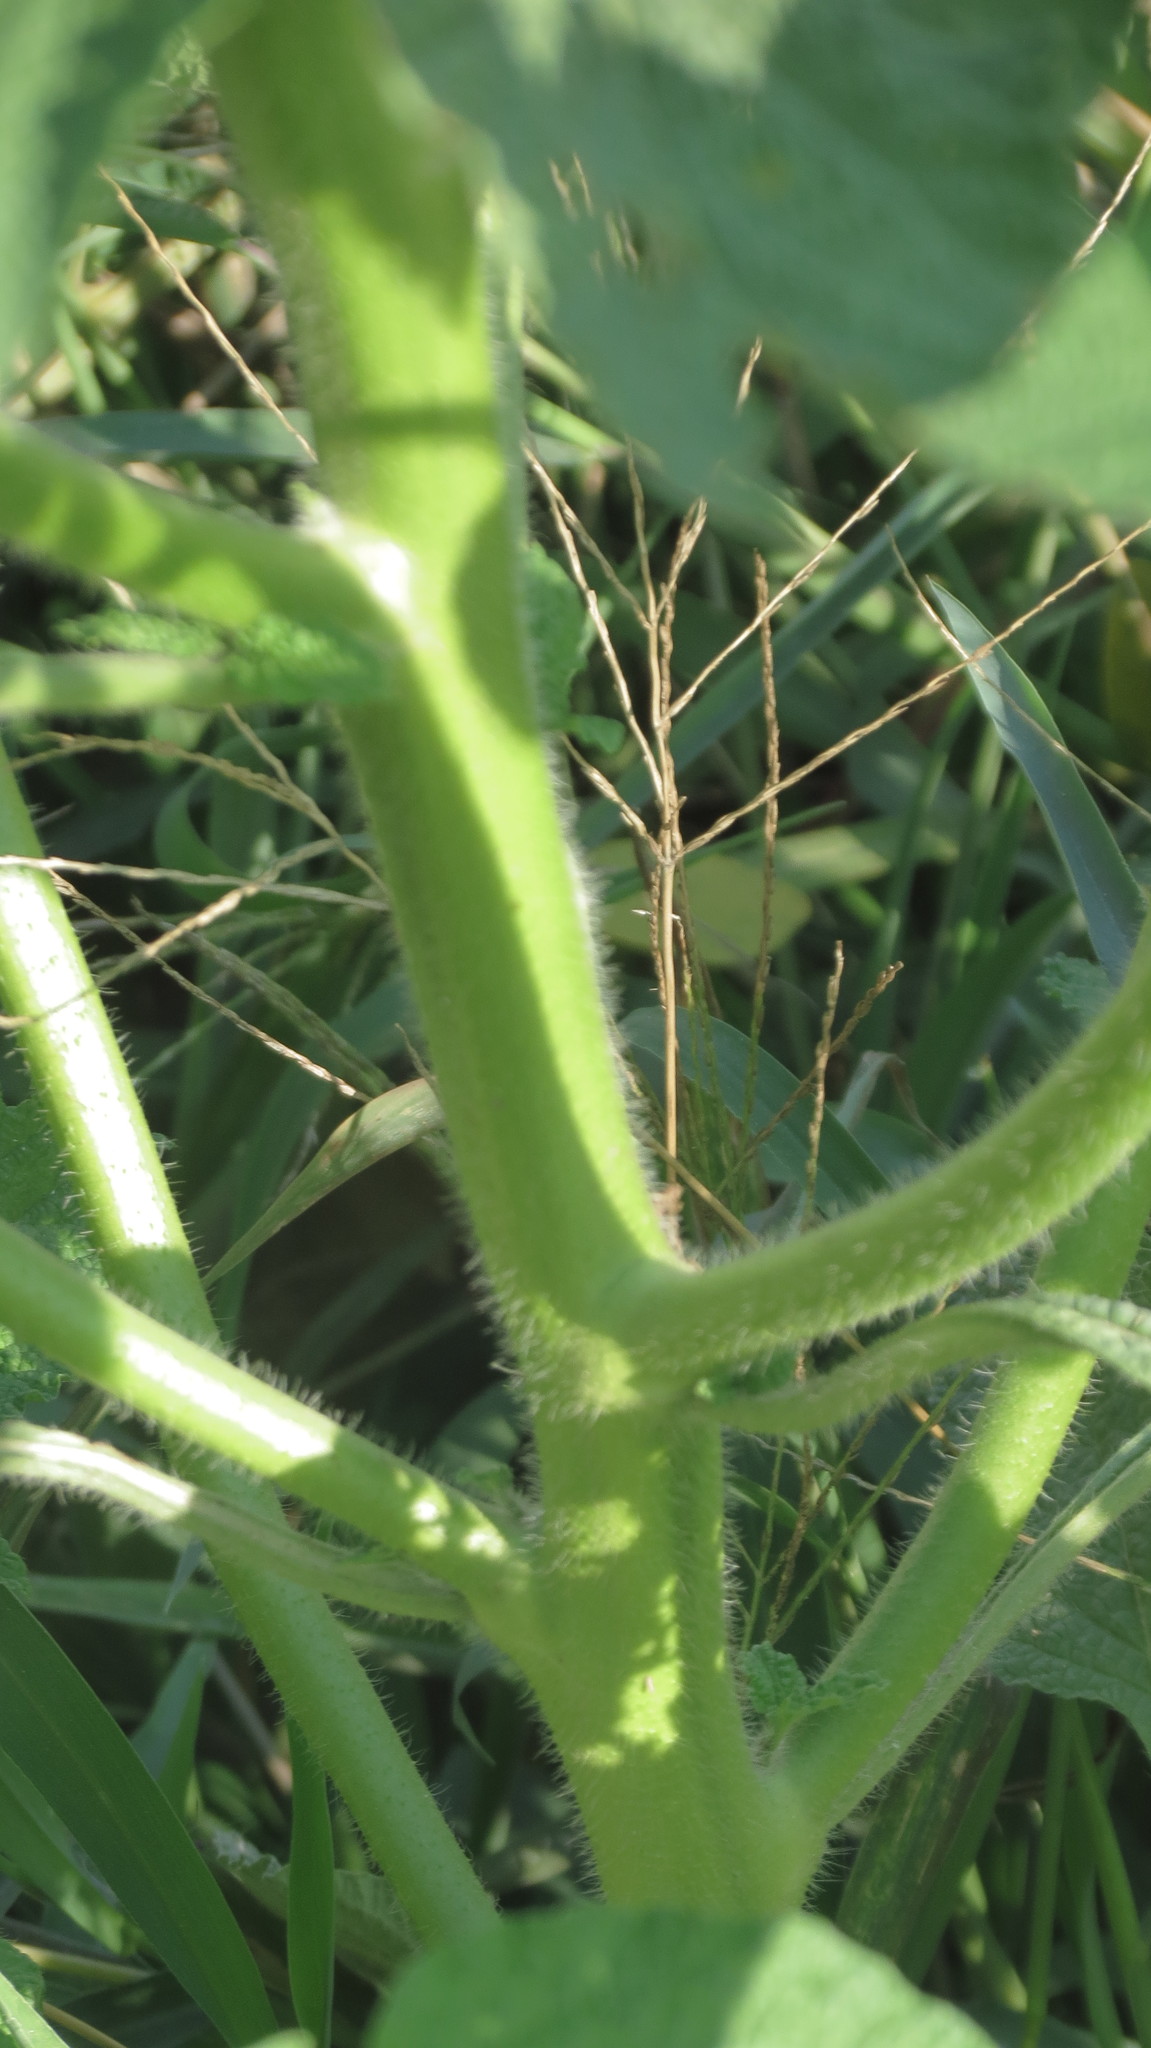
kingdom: Plantae
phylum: Tracheophyta
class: Magnoliopsida
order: Boraginales
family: Heliotropiaceae
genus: Heliotropium
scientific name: Heliotropium angiospermum
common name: Eye bright
